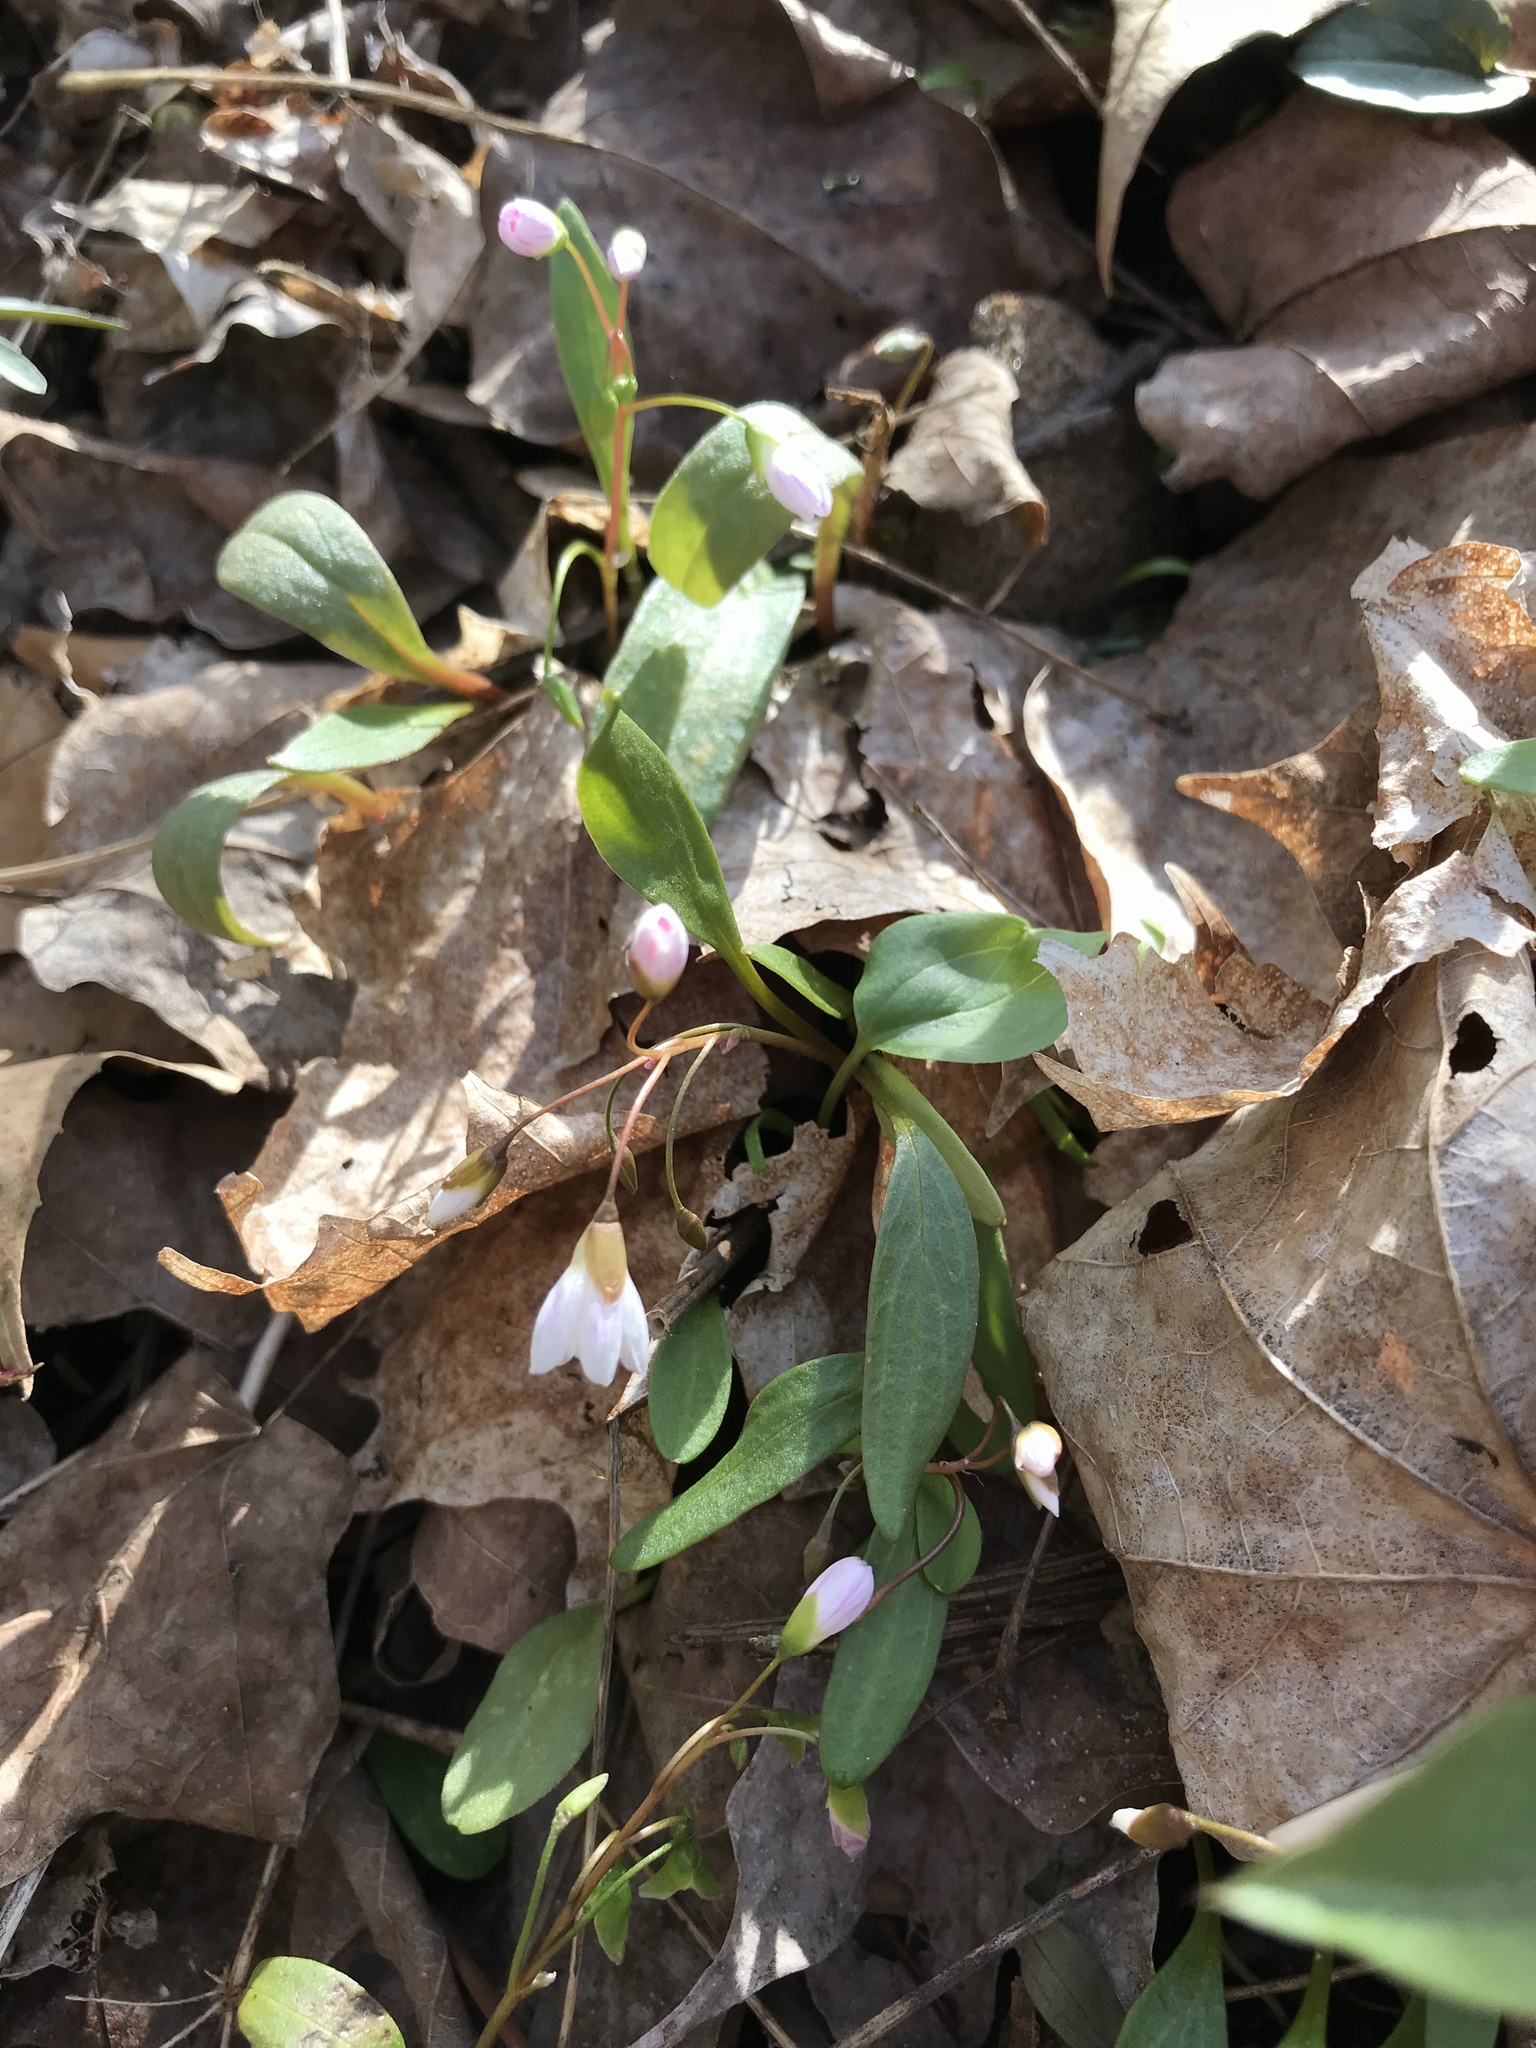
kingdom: Plantae
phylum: Tracheophyta
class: Magnoliopsida
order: Caryophyllales
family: Montiaceae
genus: Claytonia
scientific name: Claytonia caroliniana
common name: Carolina spring beauty
